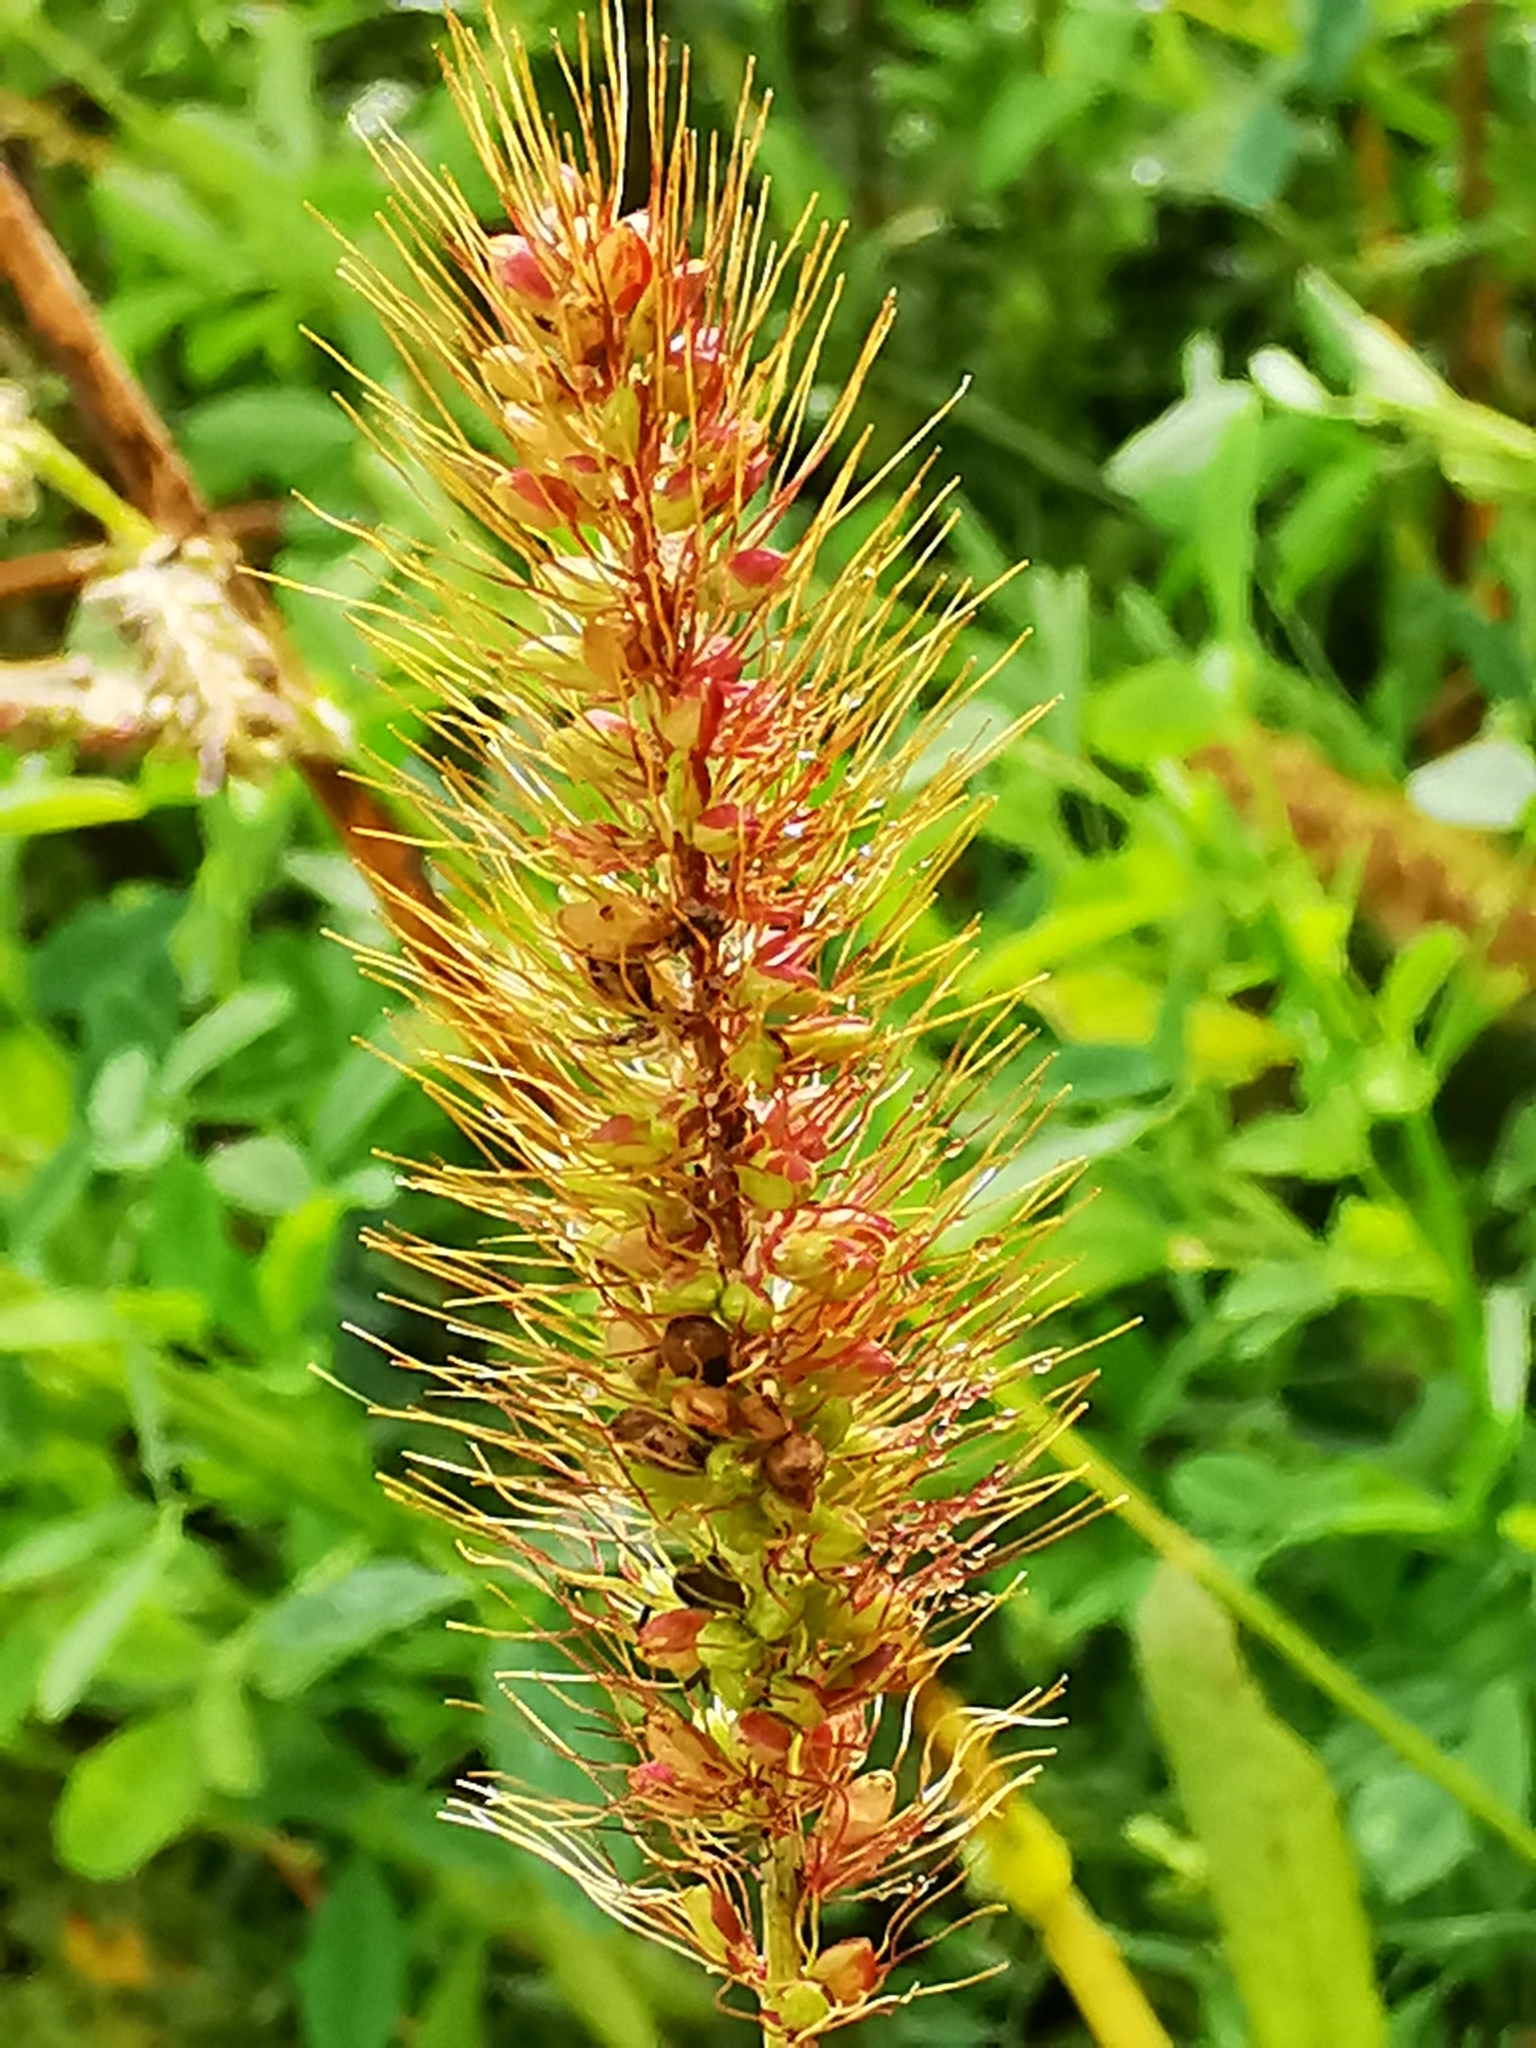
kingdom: Plantae
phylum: Tracheophyta
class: Liliopsida
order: Poales
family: Poaceae
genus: Setaria
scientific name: Setaria viridis
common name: Green bristlegrass
